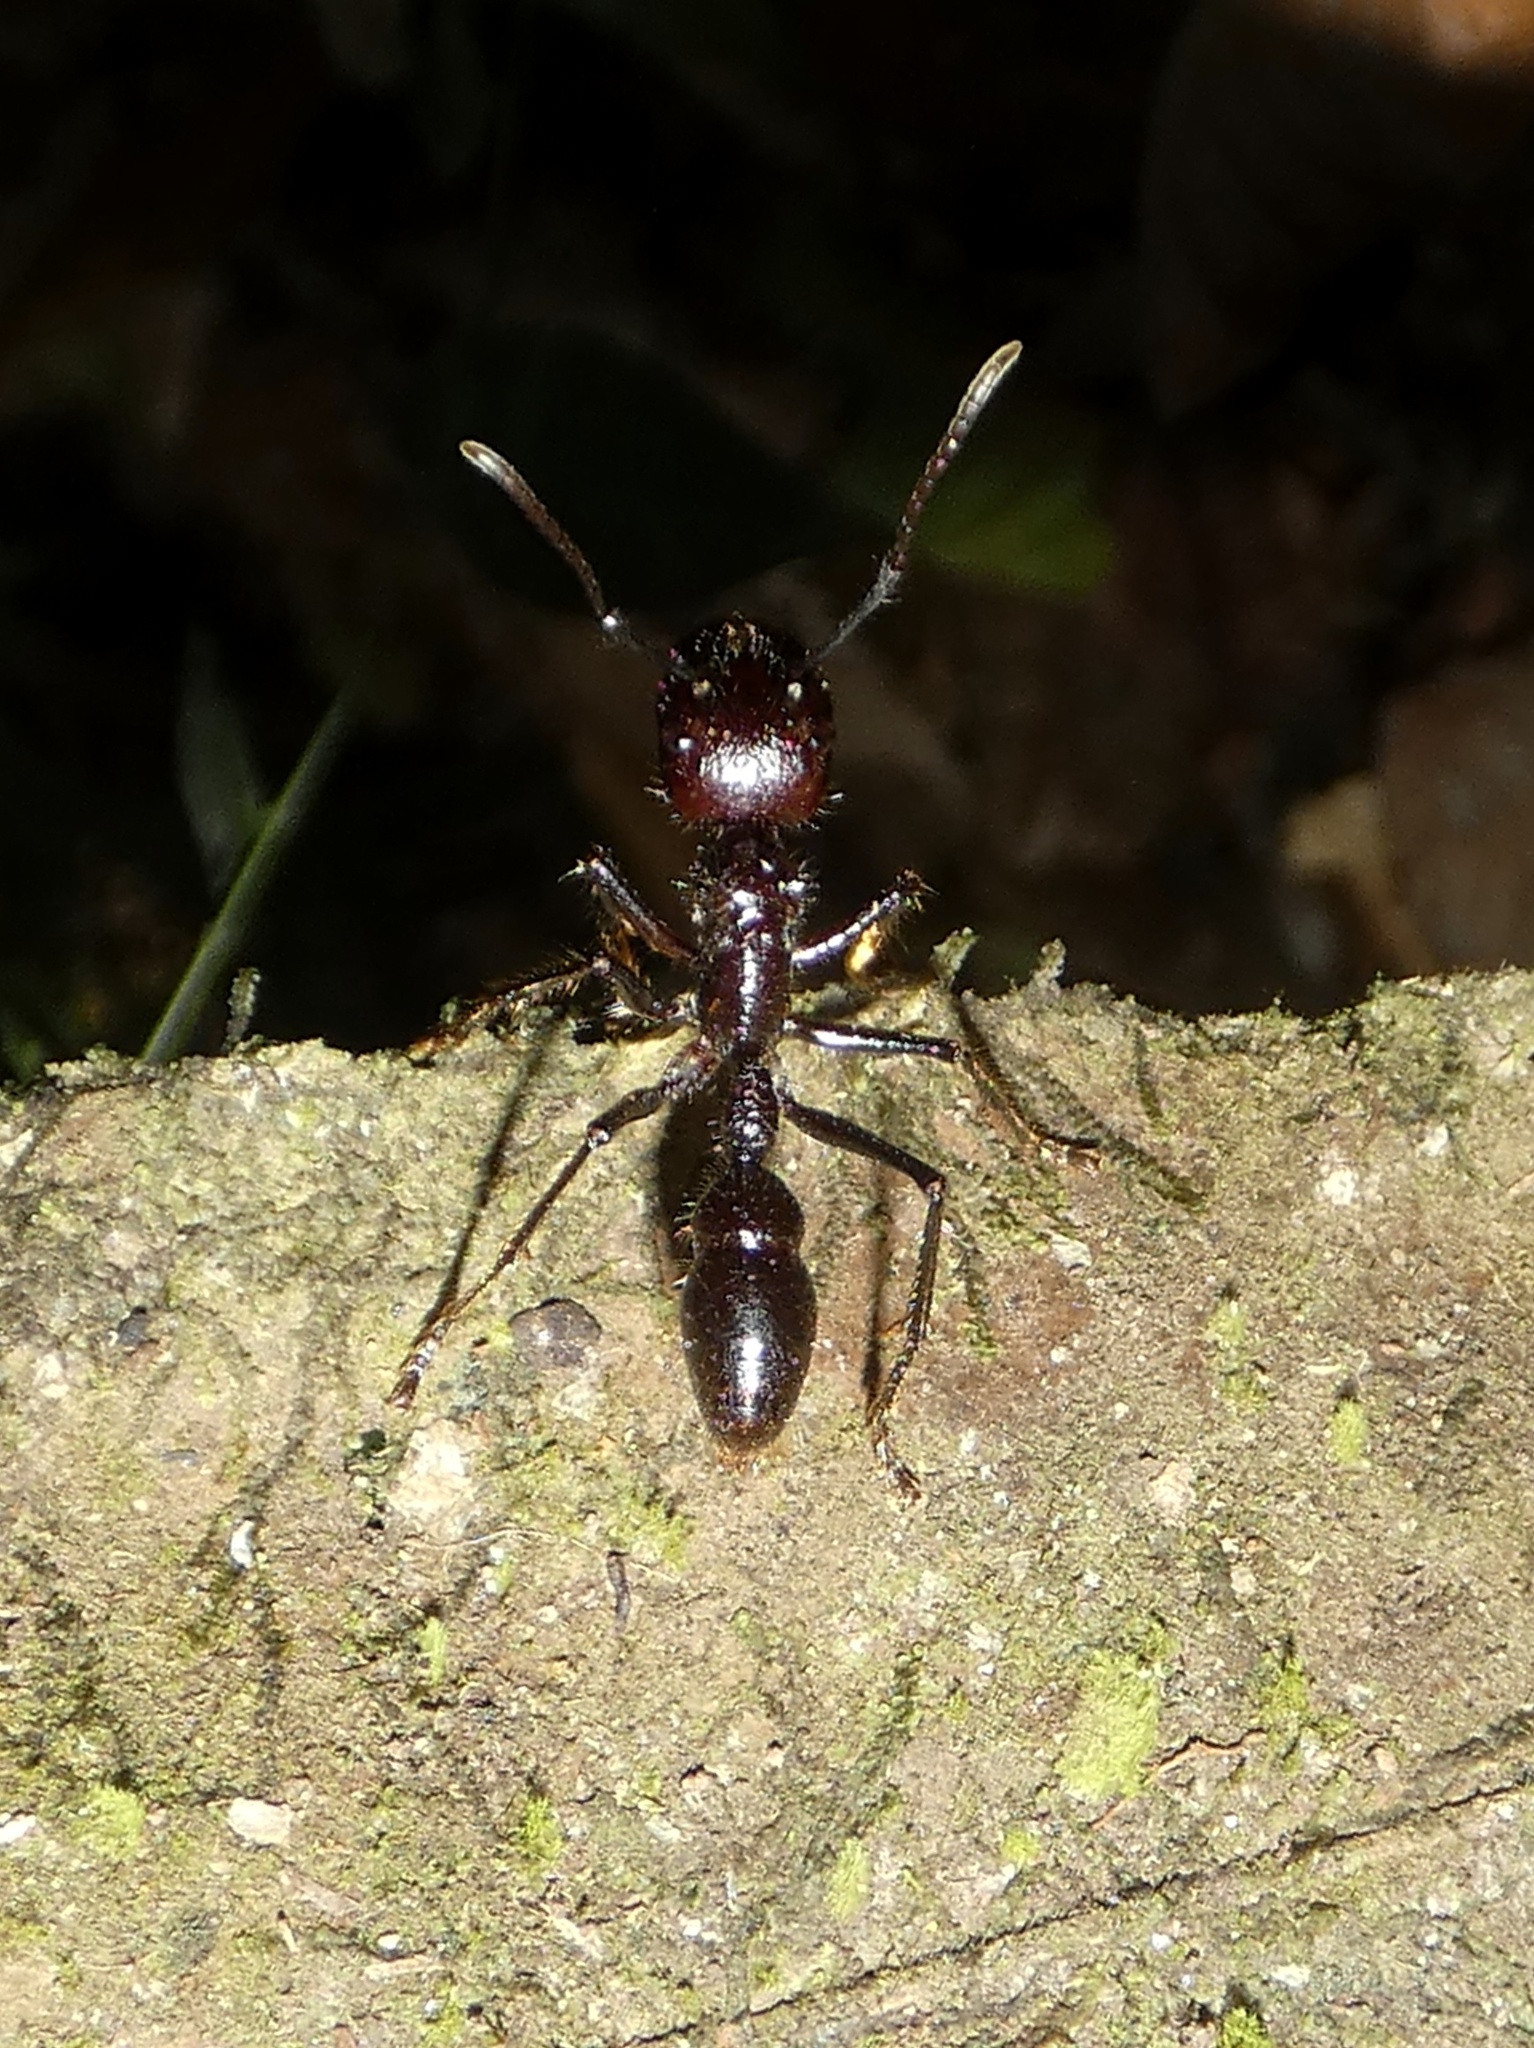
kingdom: Animalia
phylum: Arthropoda
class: Insecta
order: Hymenoptera
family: Formicidae
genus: Paraponera
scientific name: Paraponera clavata
